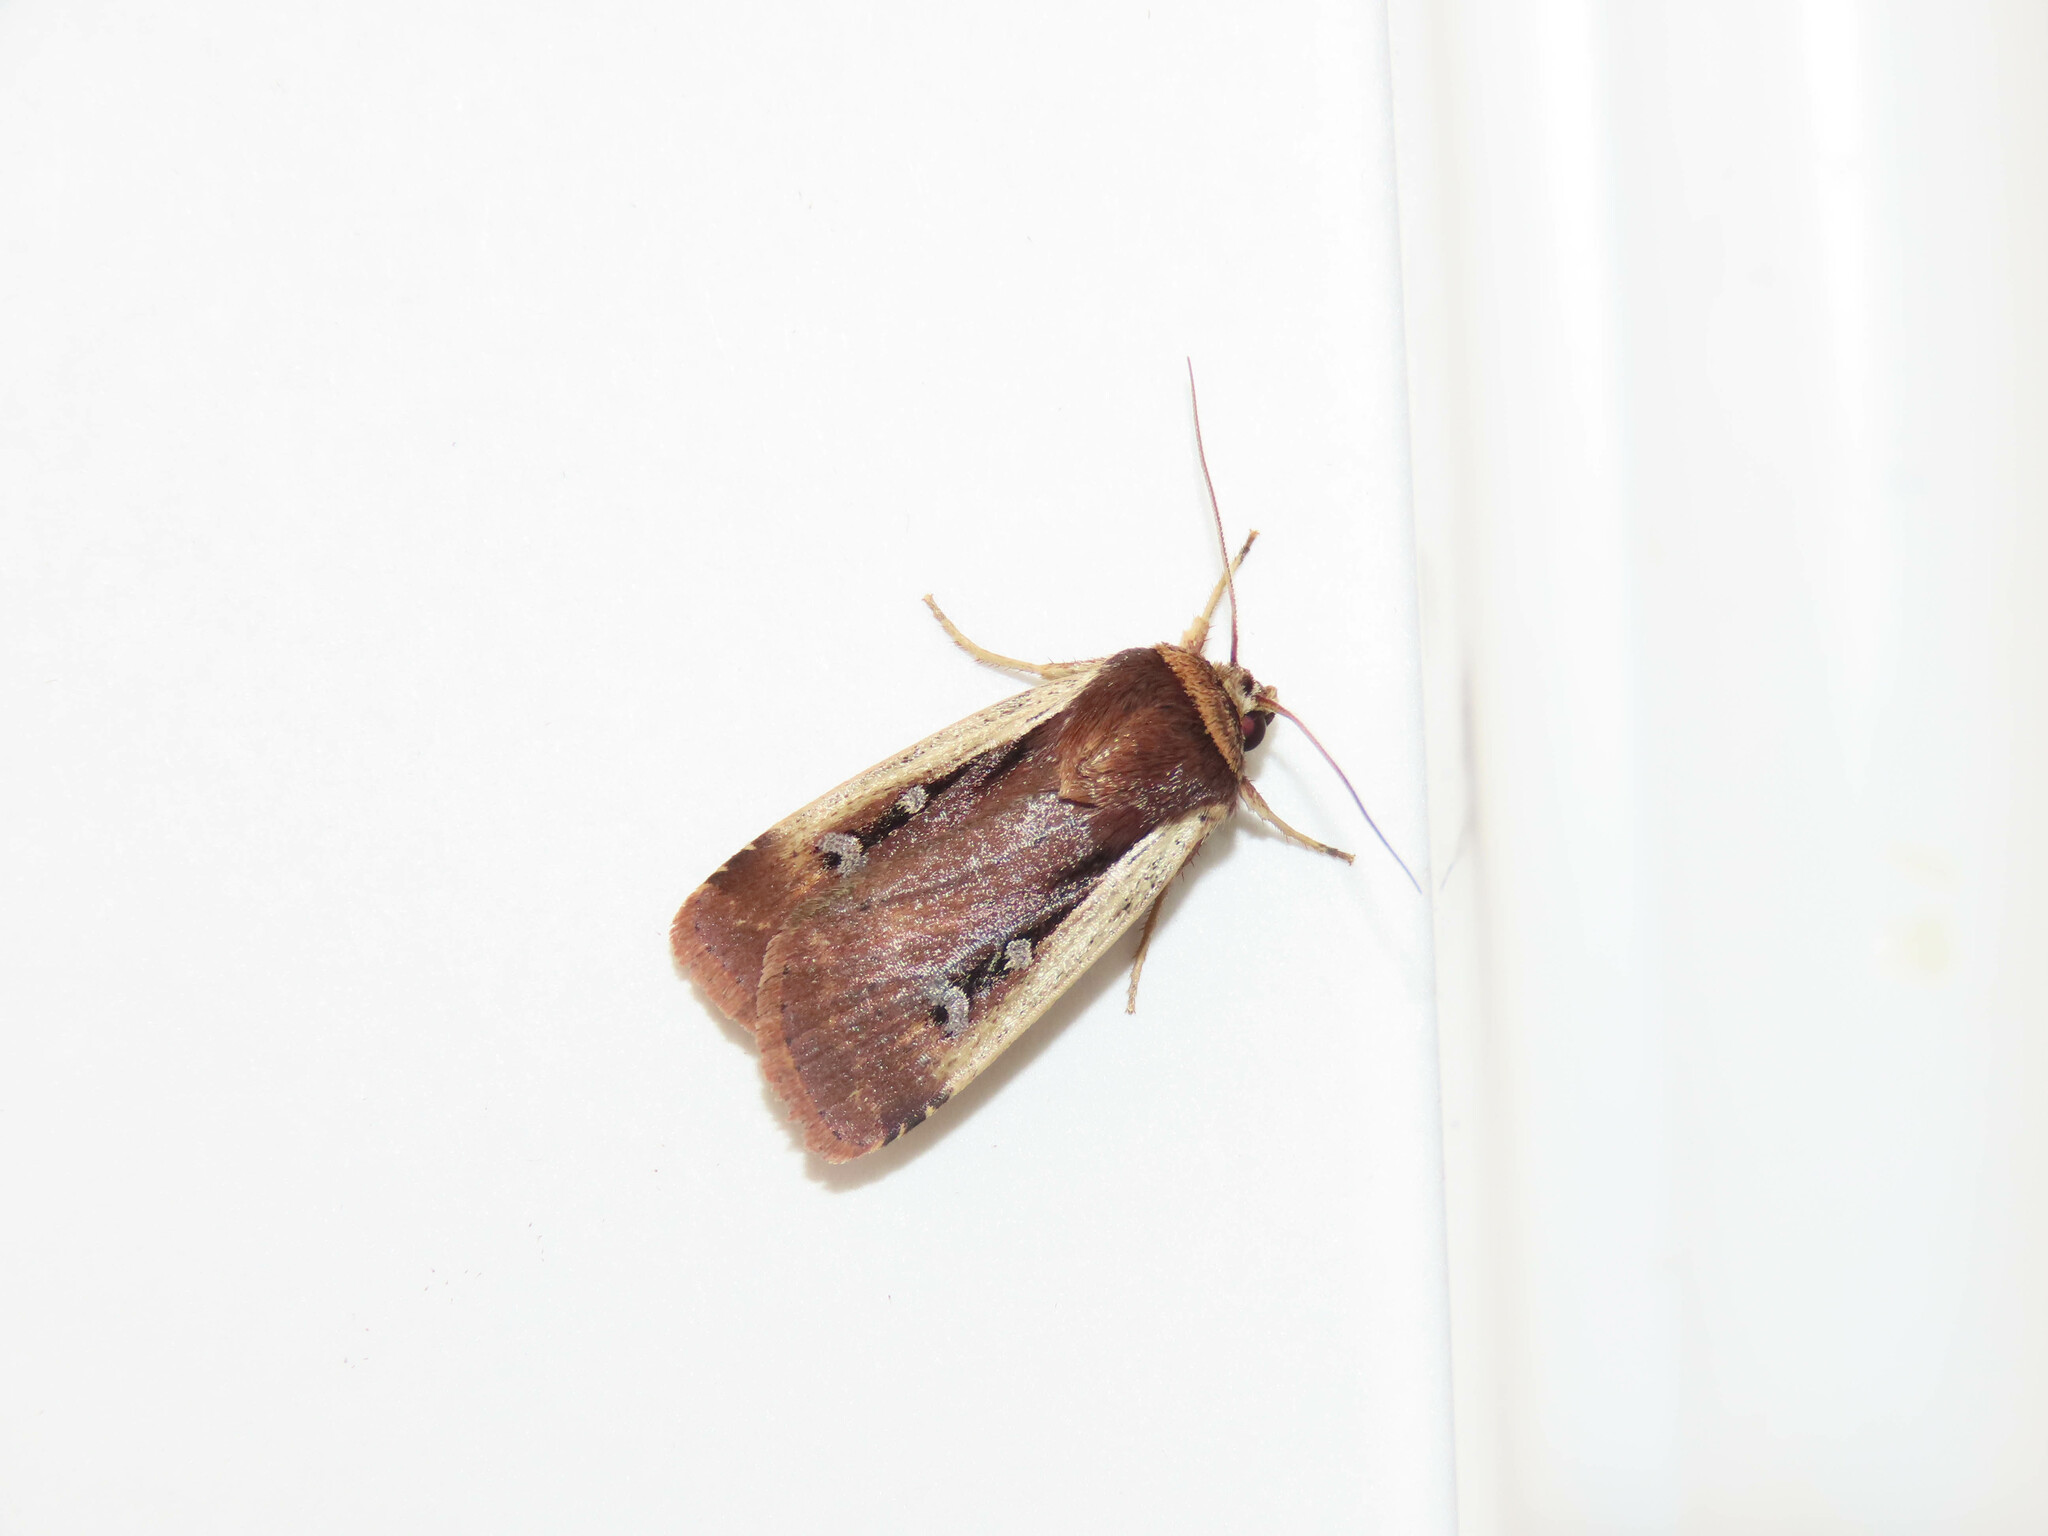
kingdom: Animalia
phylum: Arthropoda
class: Insecta
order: Lepidoptera
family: Noctuidae
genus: Ochropleura
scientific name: Ochropleura implecta
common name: Flame-shouldered dart
